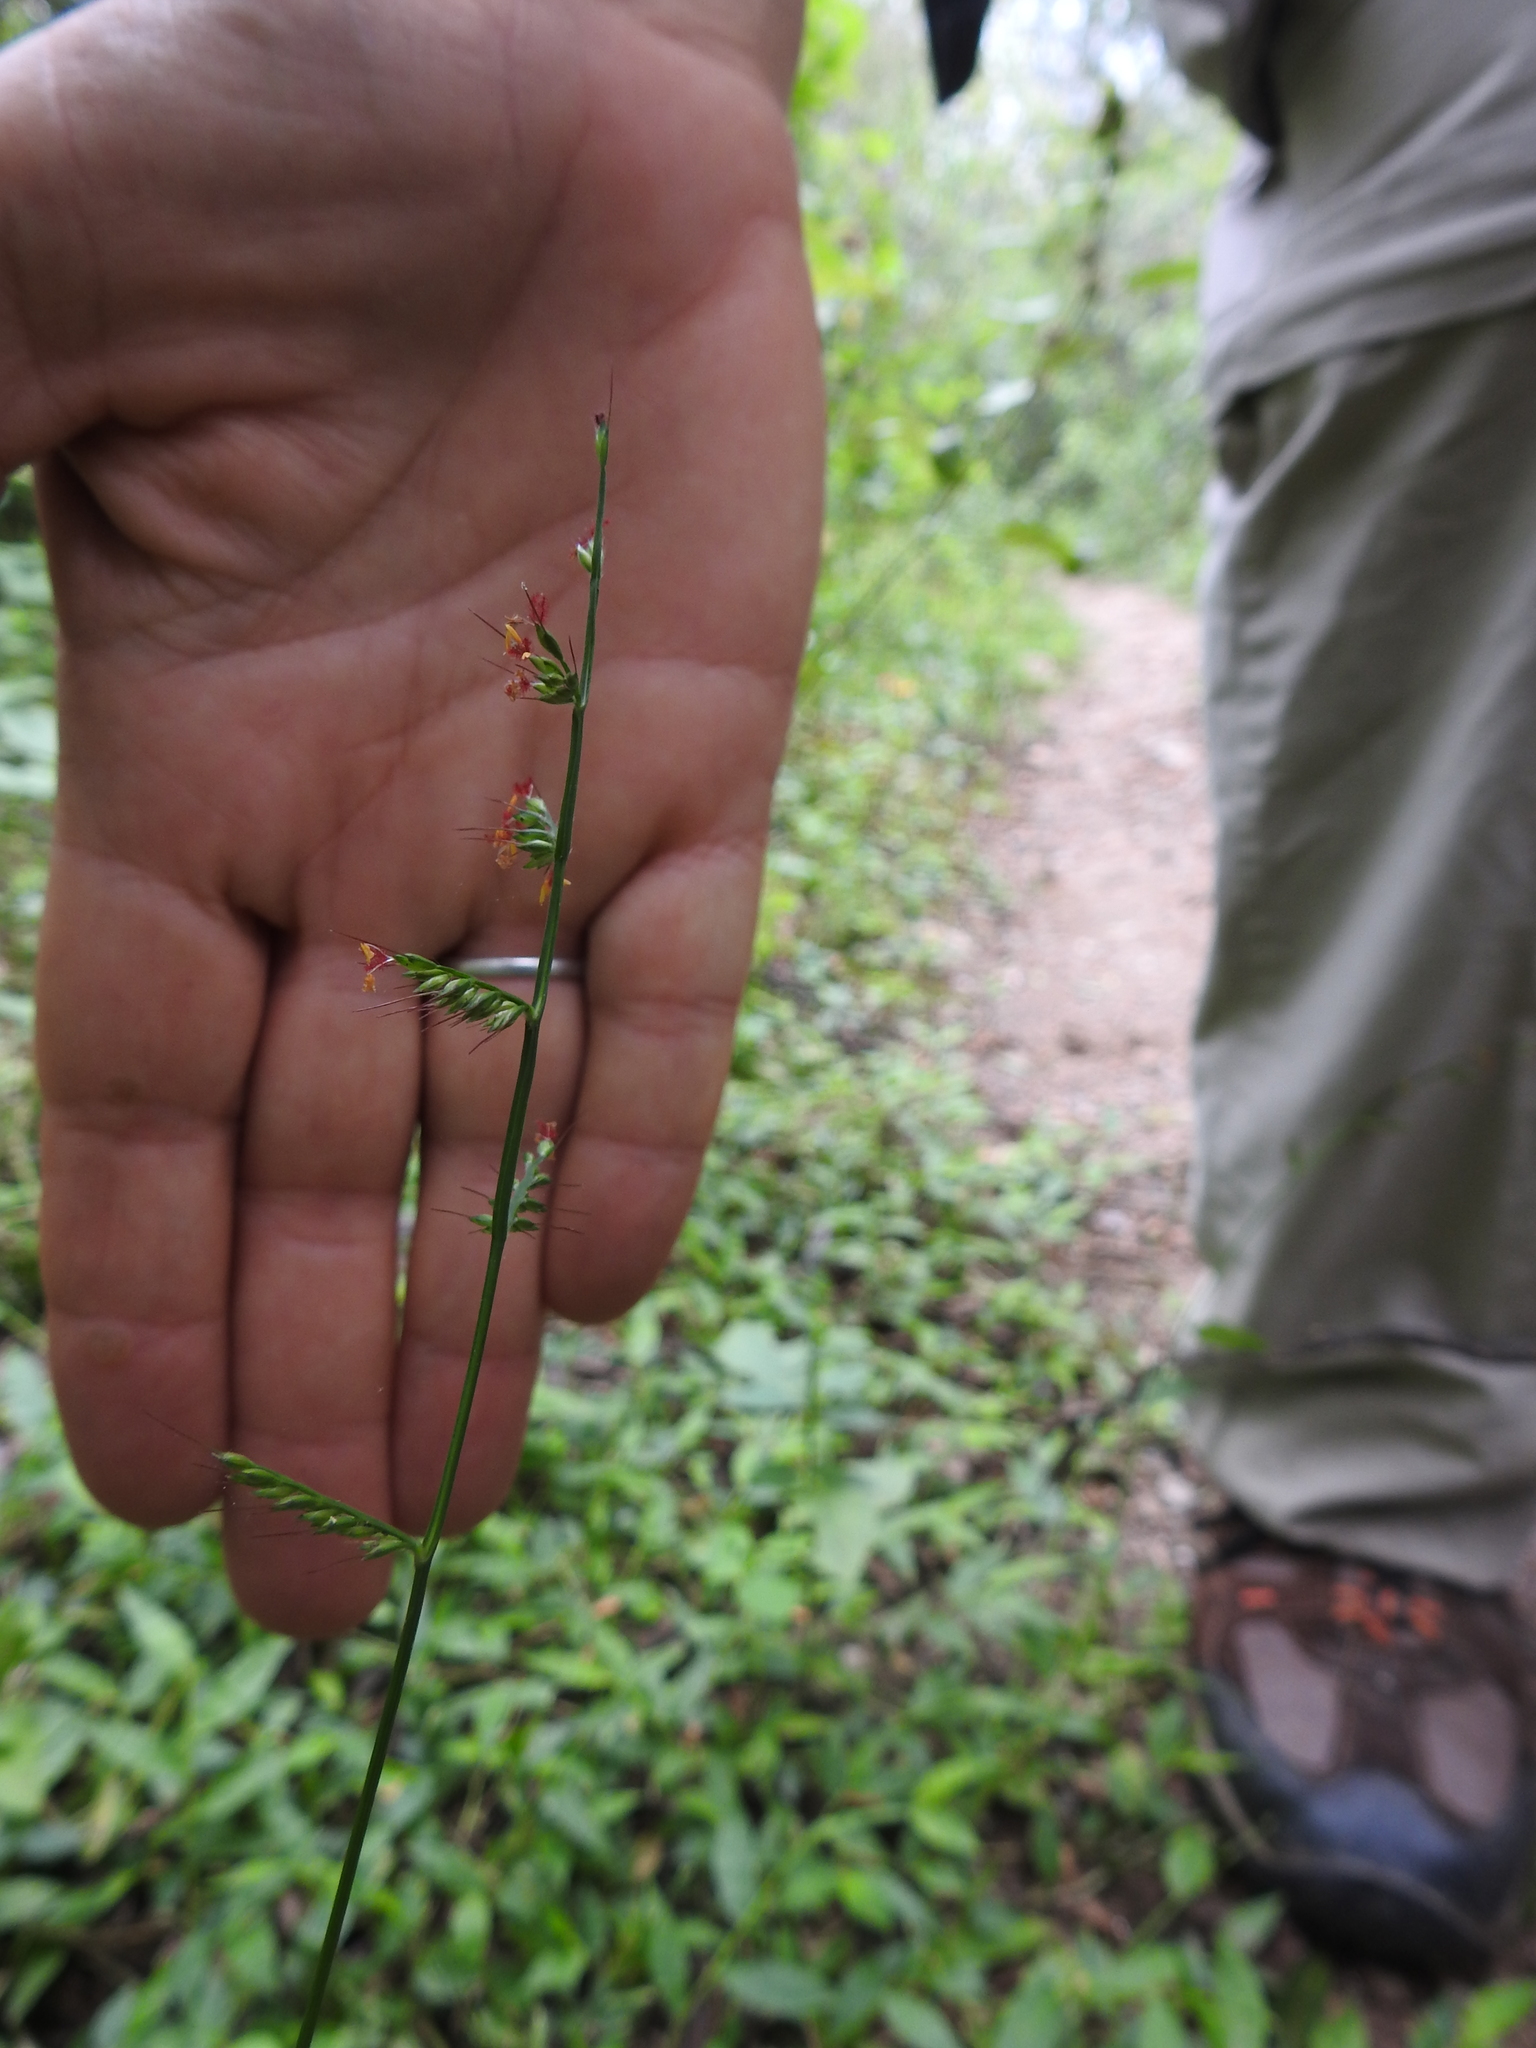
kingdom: Plantae
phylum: Tracheophyta
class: Liliopsida
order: Poales
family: Poaceae
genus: Oplismenus
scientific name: Oplismenus hirtellus
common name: Basketgrass
